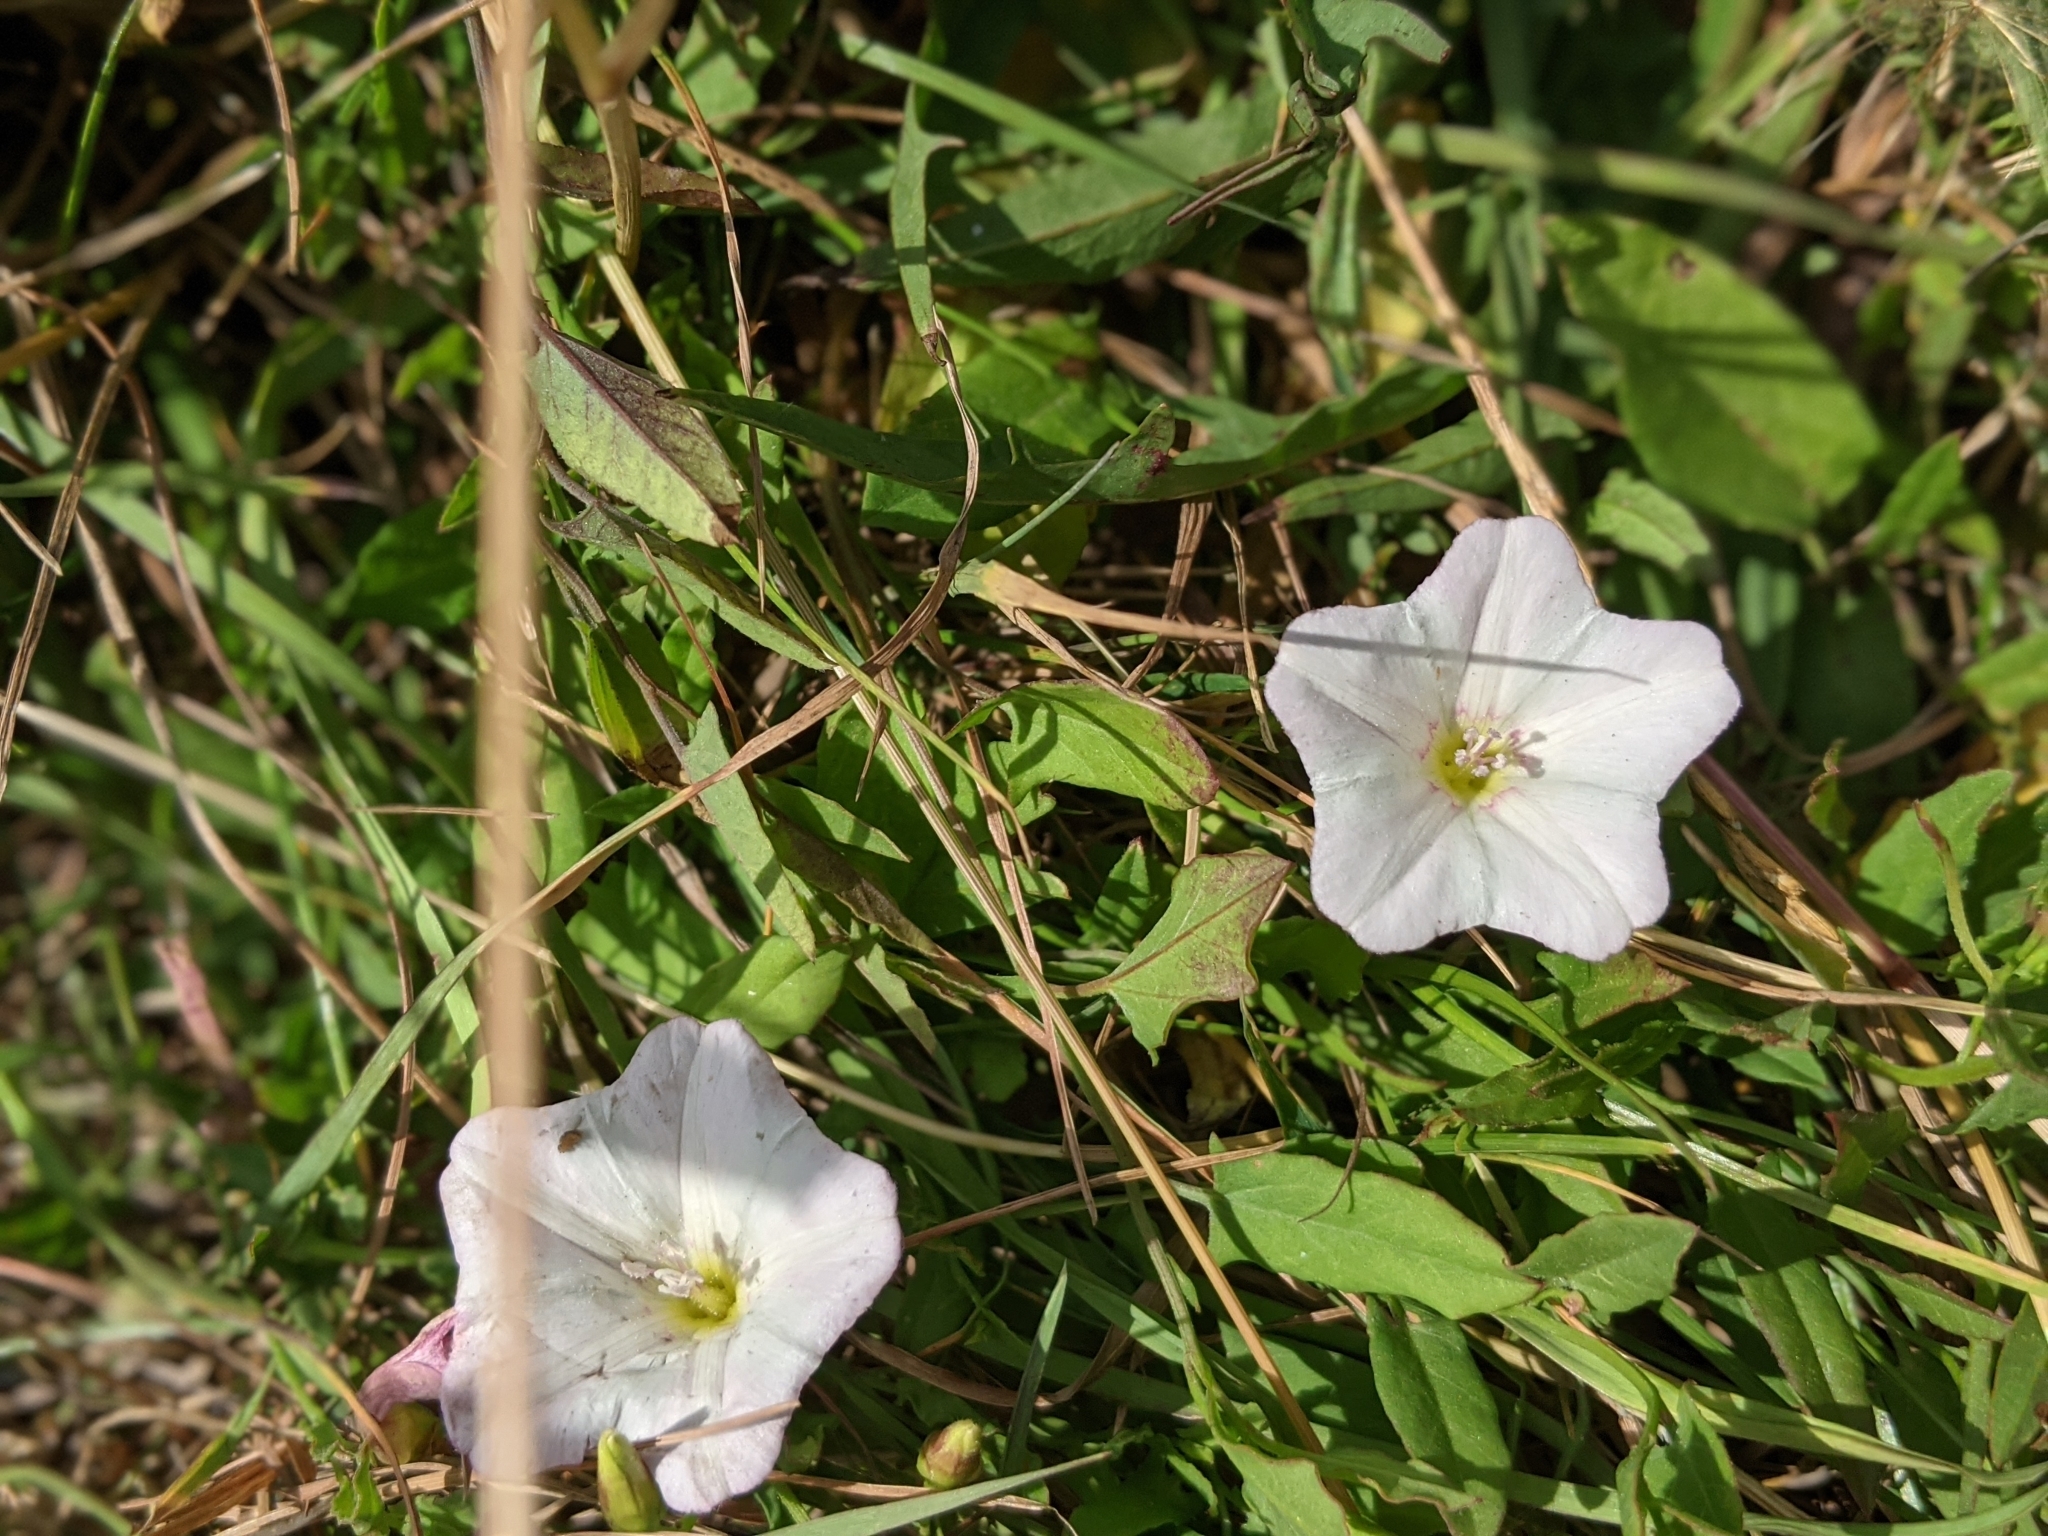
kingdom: Plantae
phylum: Tracheophyta
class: Magnoliopsida
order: Solanales
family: Convolvulaceae
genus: Convolvulus
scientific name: Convolvulus arvensis
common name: Field bindweed
